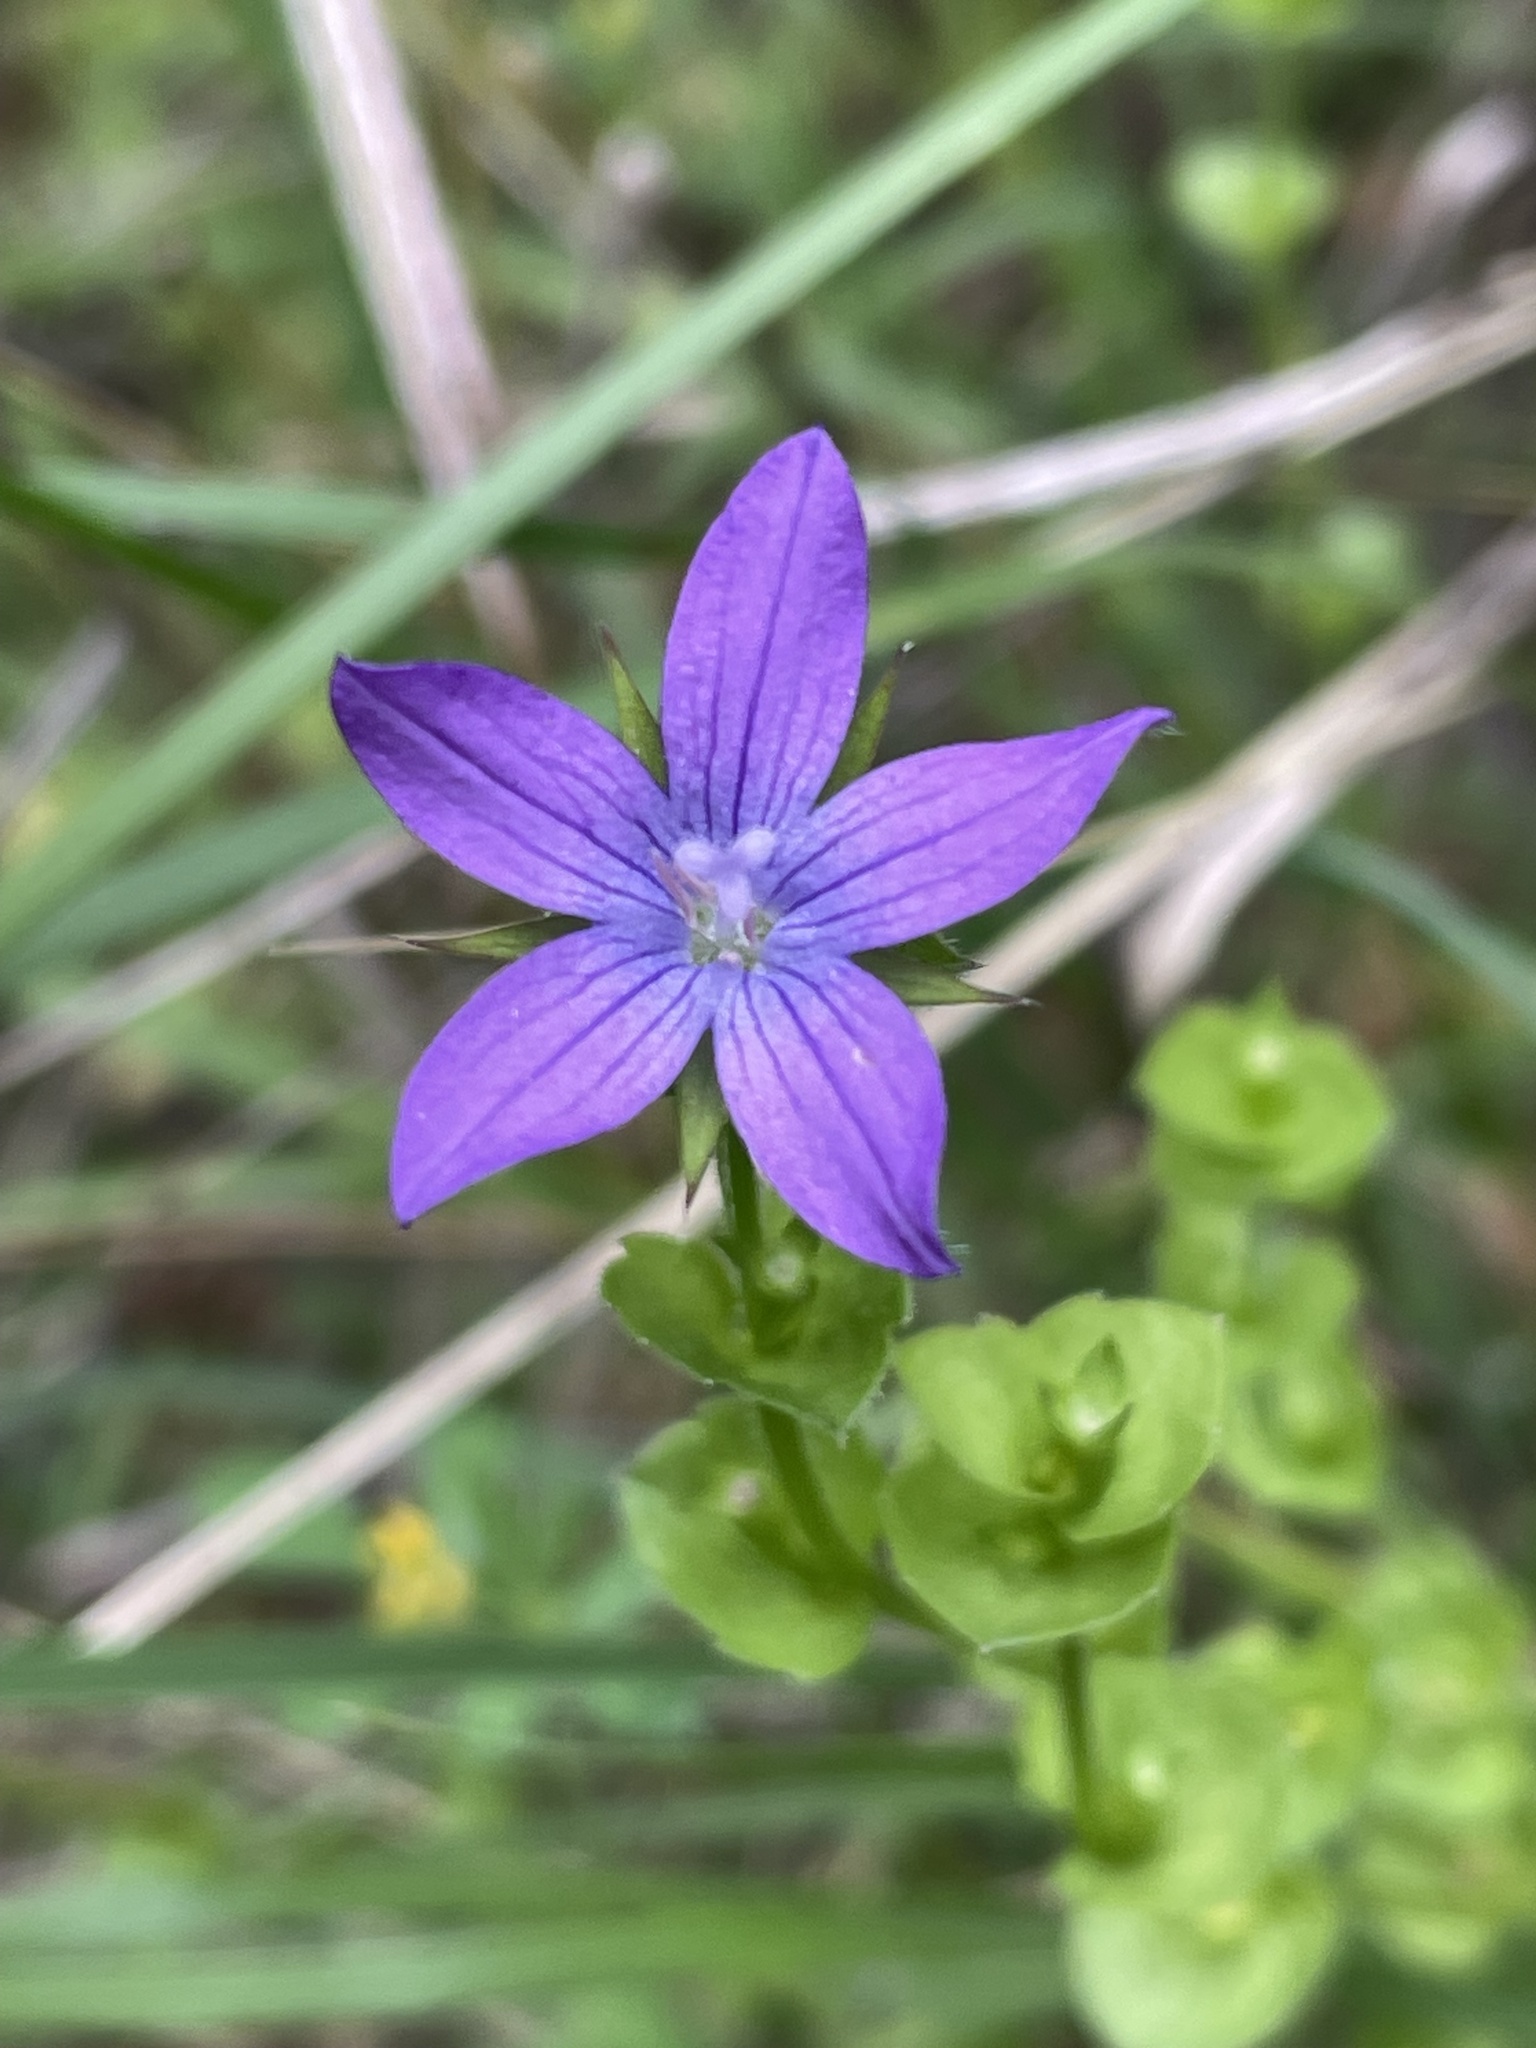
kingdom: Plantae
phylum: Tracheophyta
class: Magnoliopsida
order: Asterales
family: Campanulaceae
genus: Triodanis
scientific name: Triodanis texana
